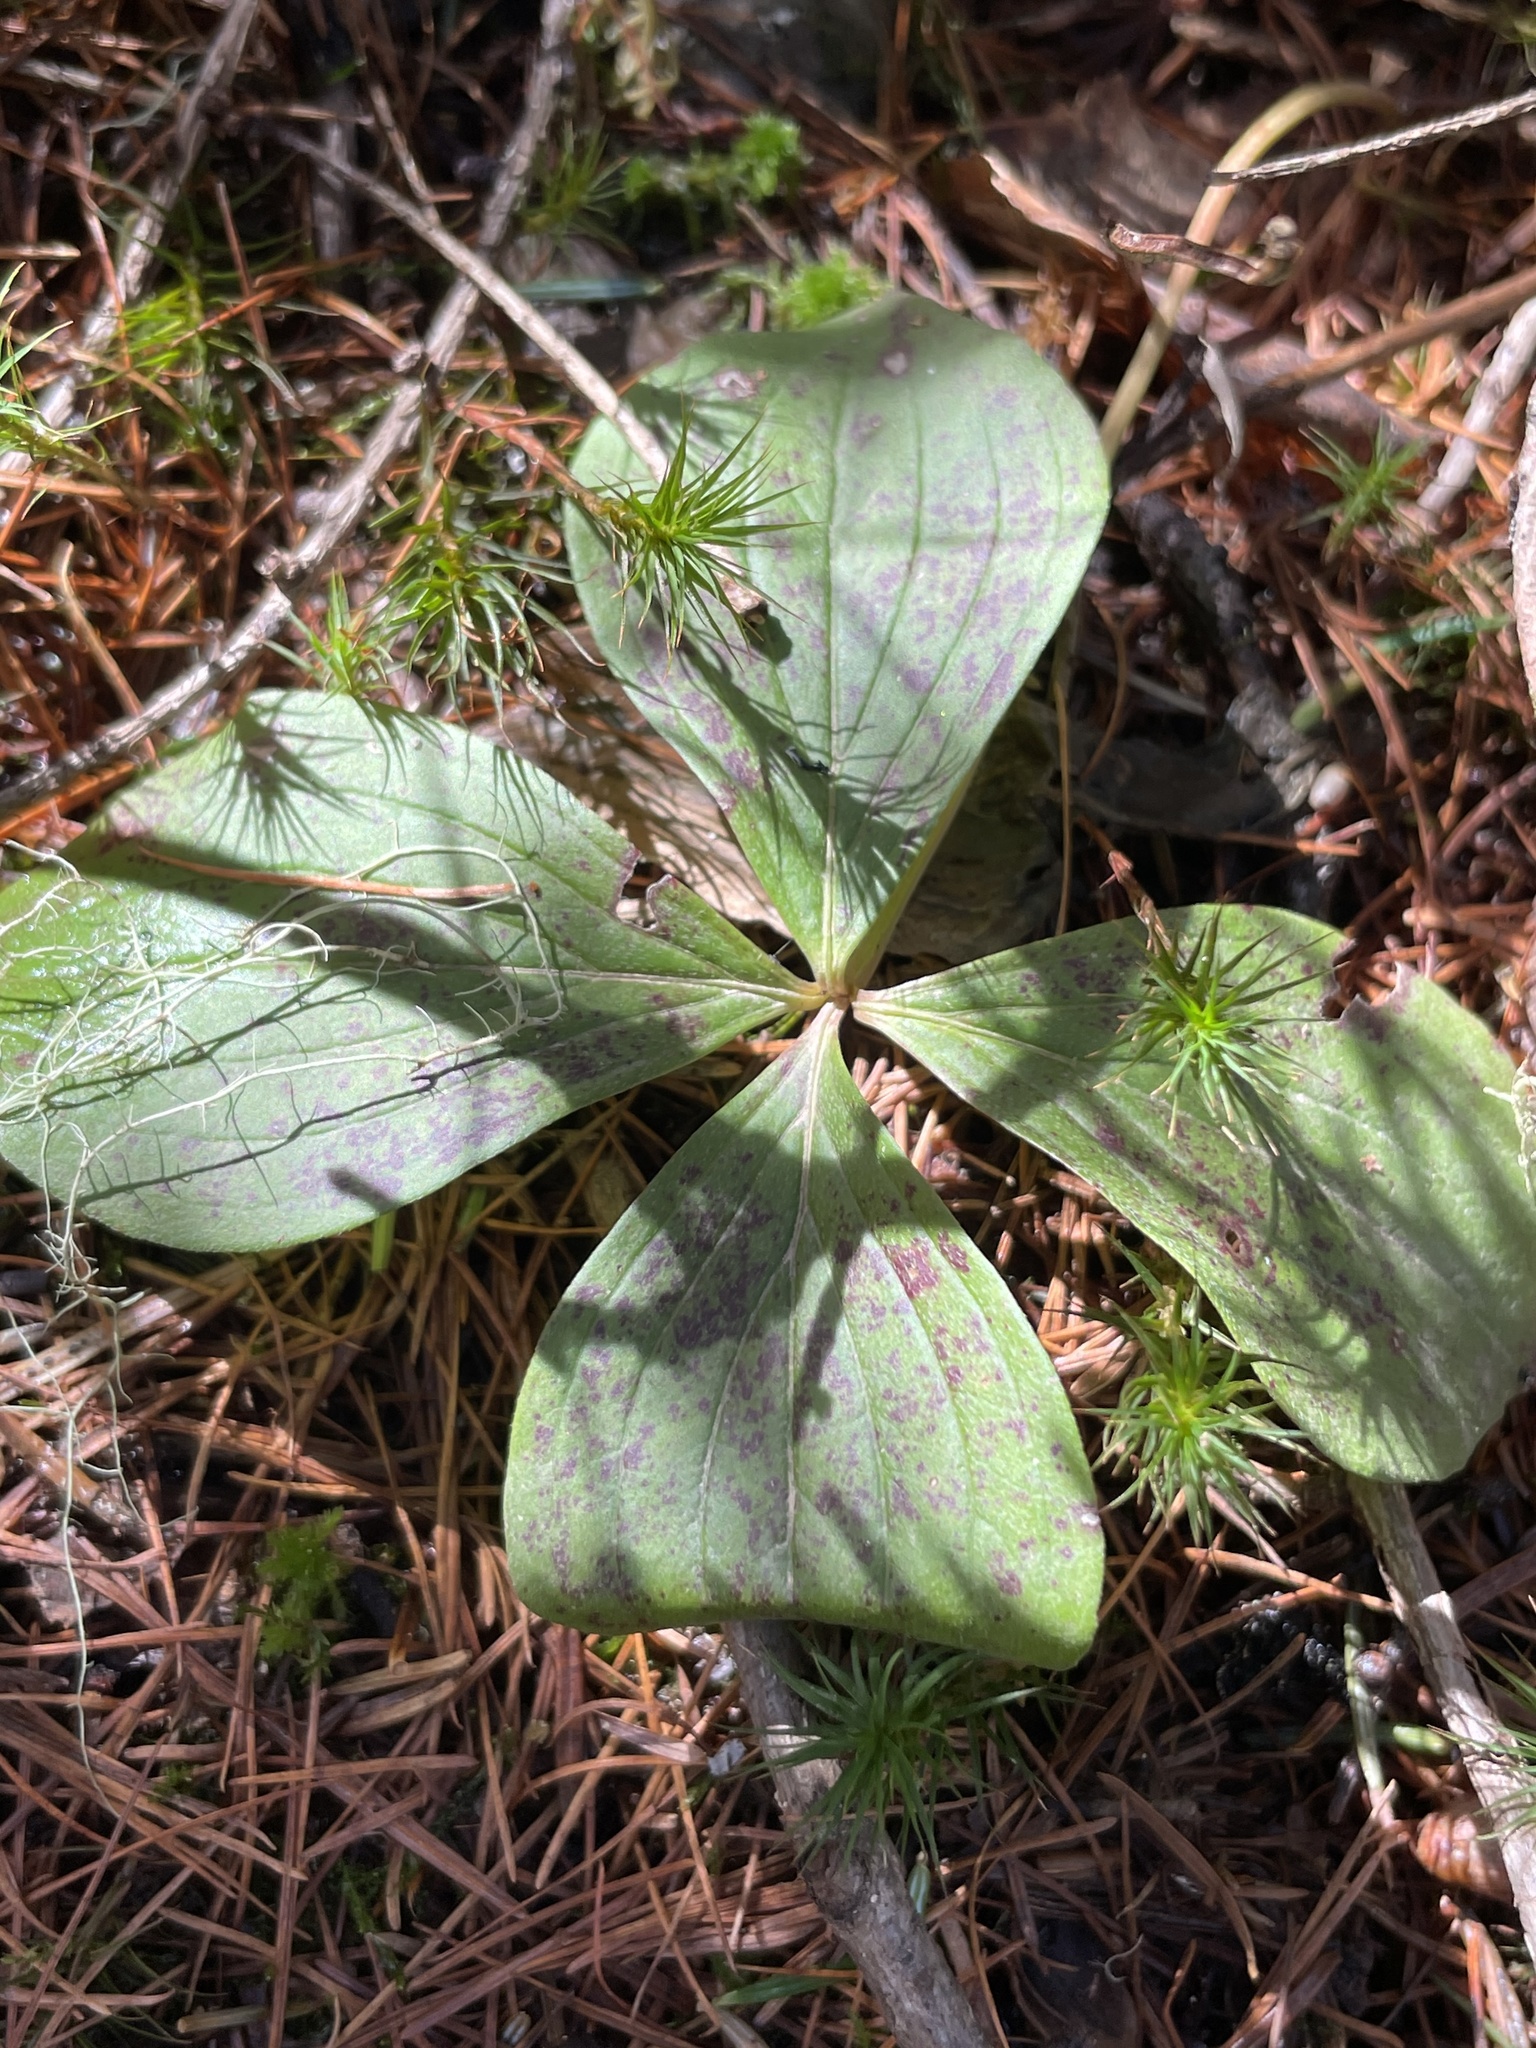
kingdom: Plantae
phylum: Tracheophyta
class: Magnoliopsida
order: Cornales
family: Cornaceae
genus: Cornus
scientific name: Cornus canadensis
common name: Creeping dogwood
